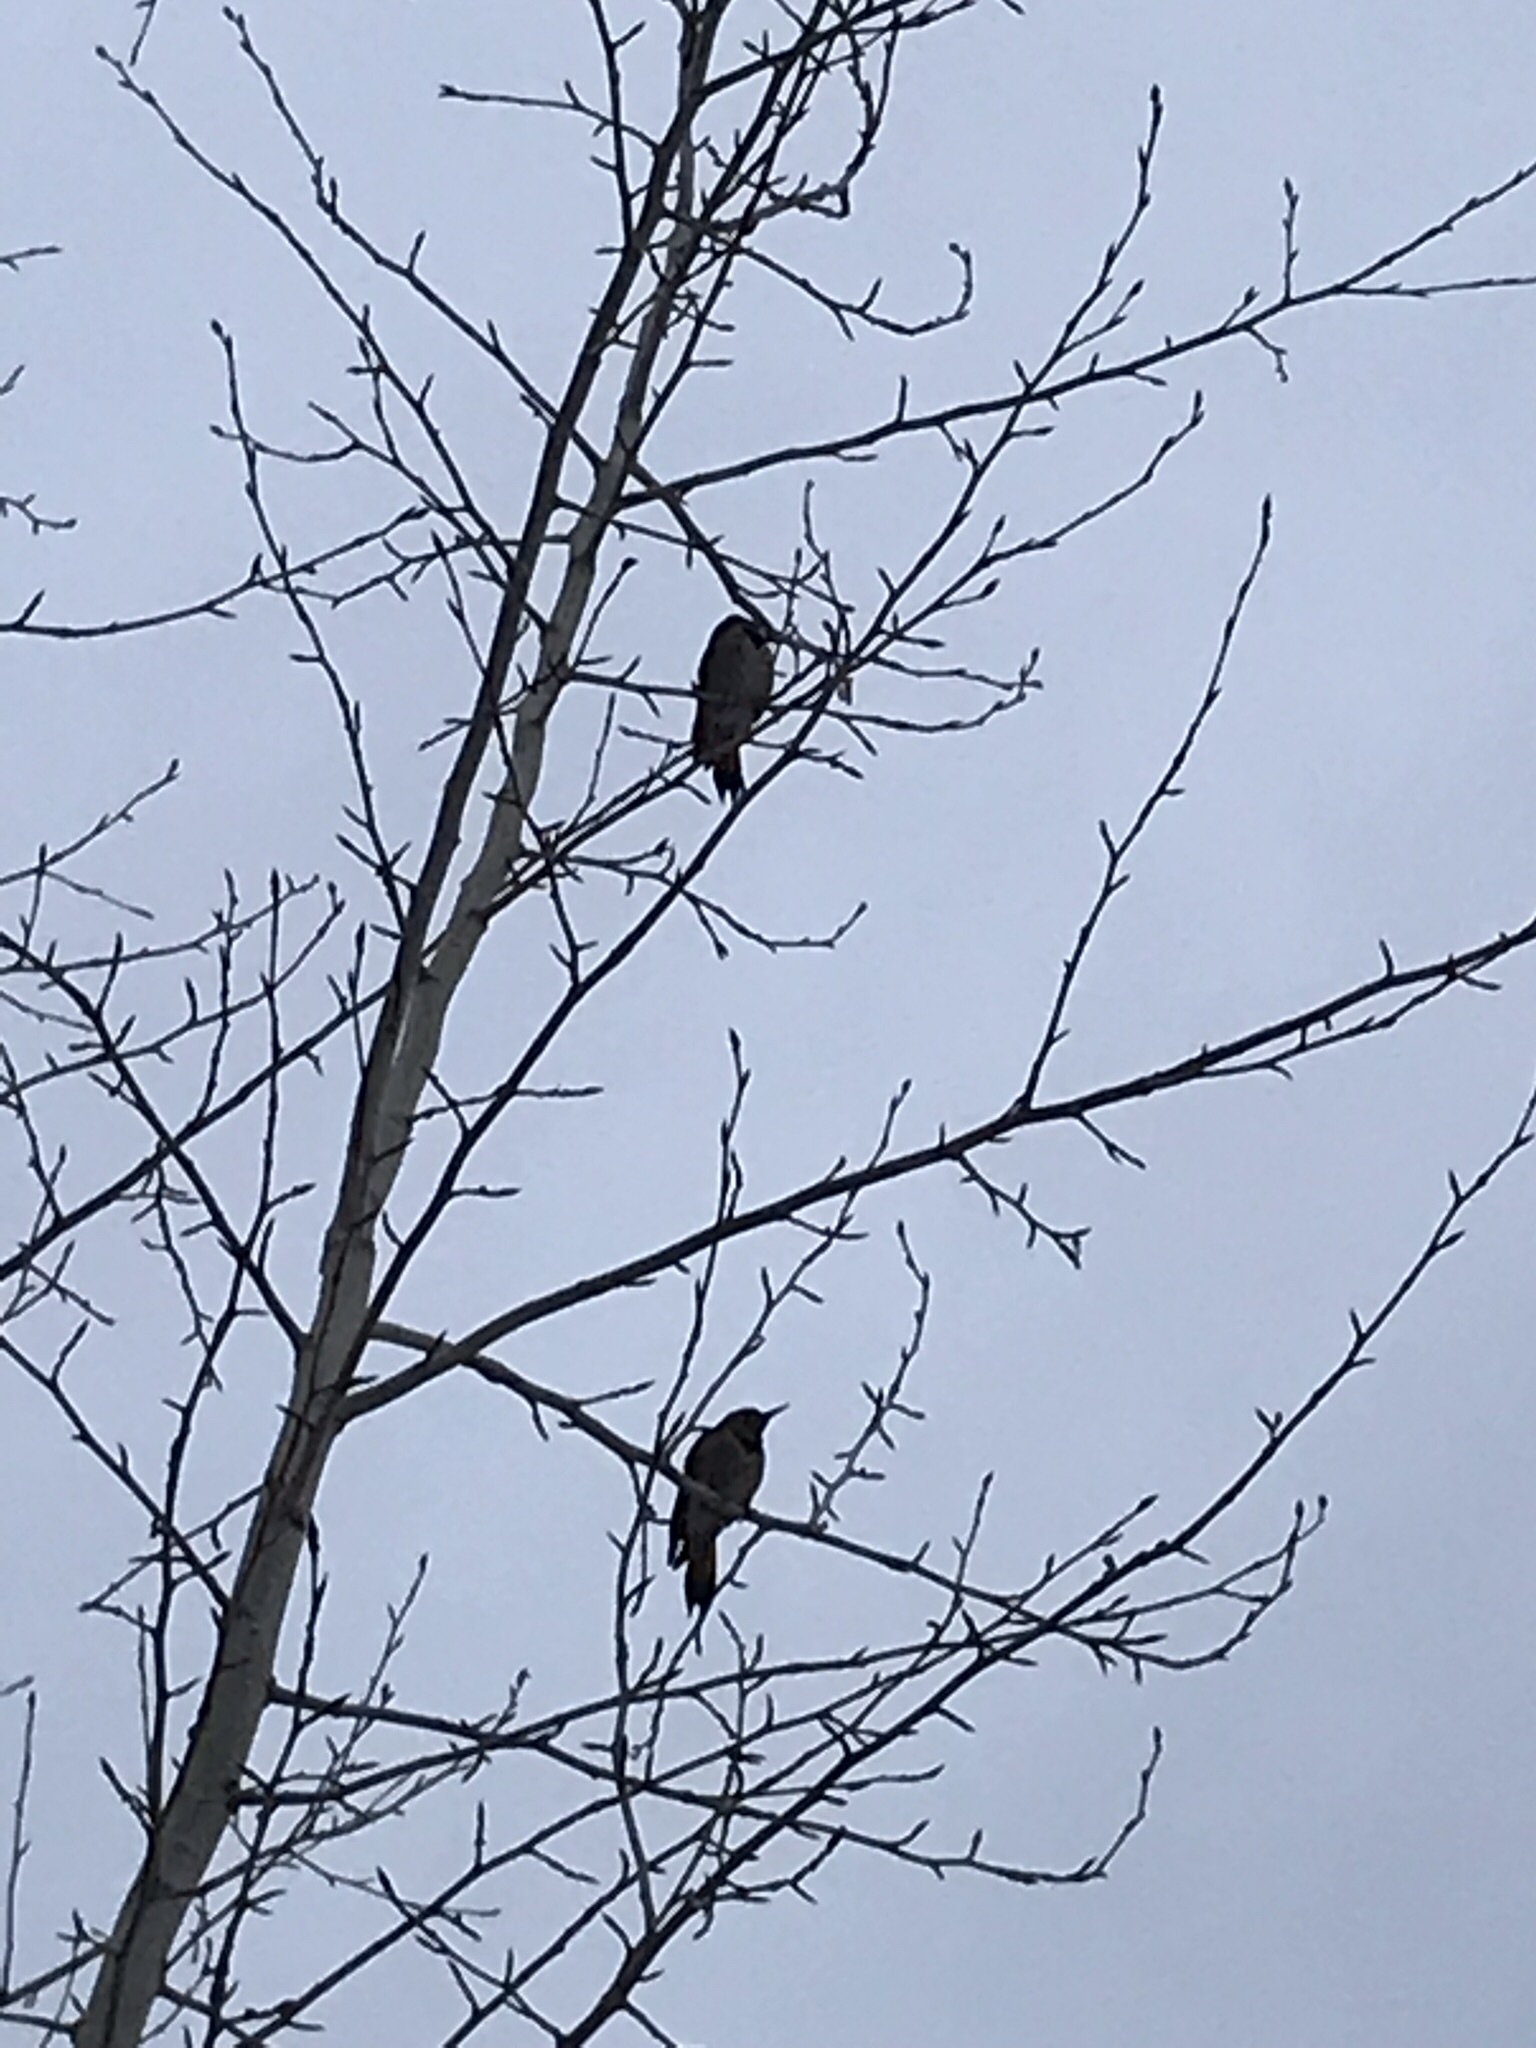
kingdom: Animalia
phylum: Chordata
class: Aves
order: Piciformes
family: Picidae
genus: Colaptes
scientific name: Colaptes auratus
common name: Northern flicker
